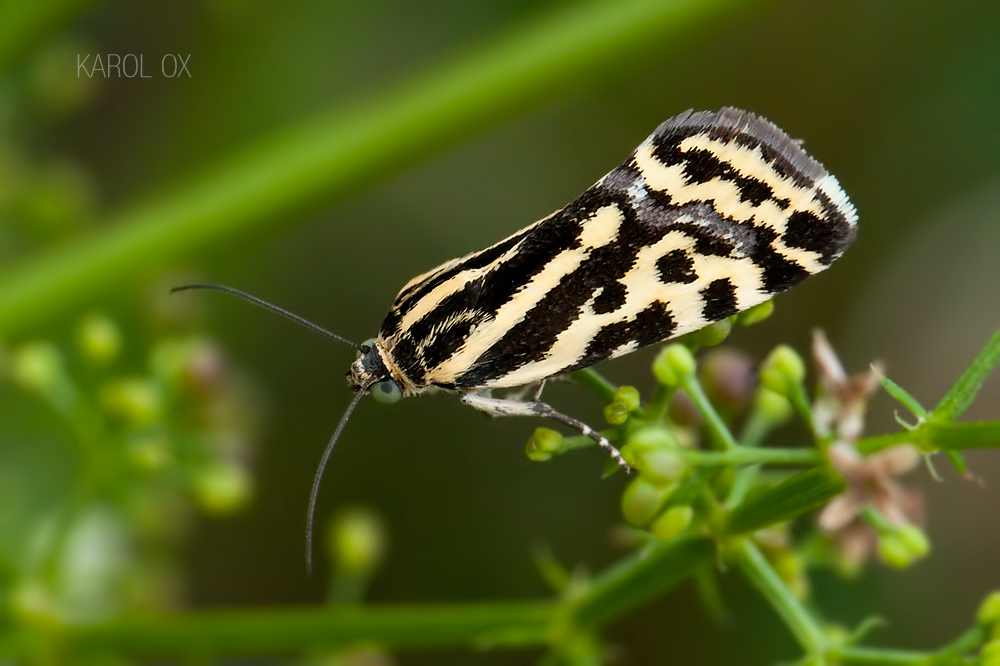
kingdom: Animalia
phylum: Arthropoda
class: Insecta
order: Lepidoptera
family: Noctuidae
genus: Acontia
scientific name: Acontia trabealis
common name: Spotted sulphur
